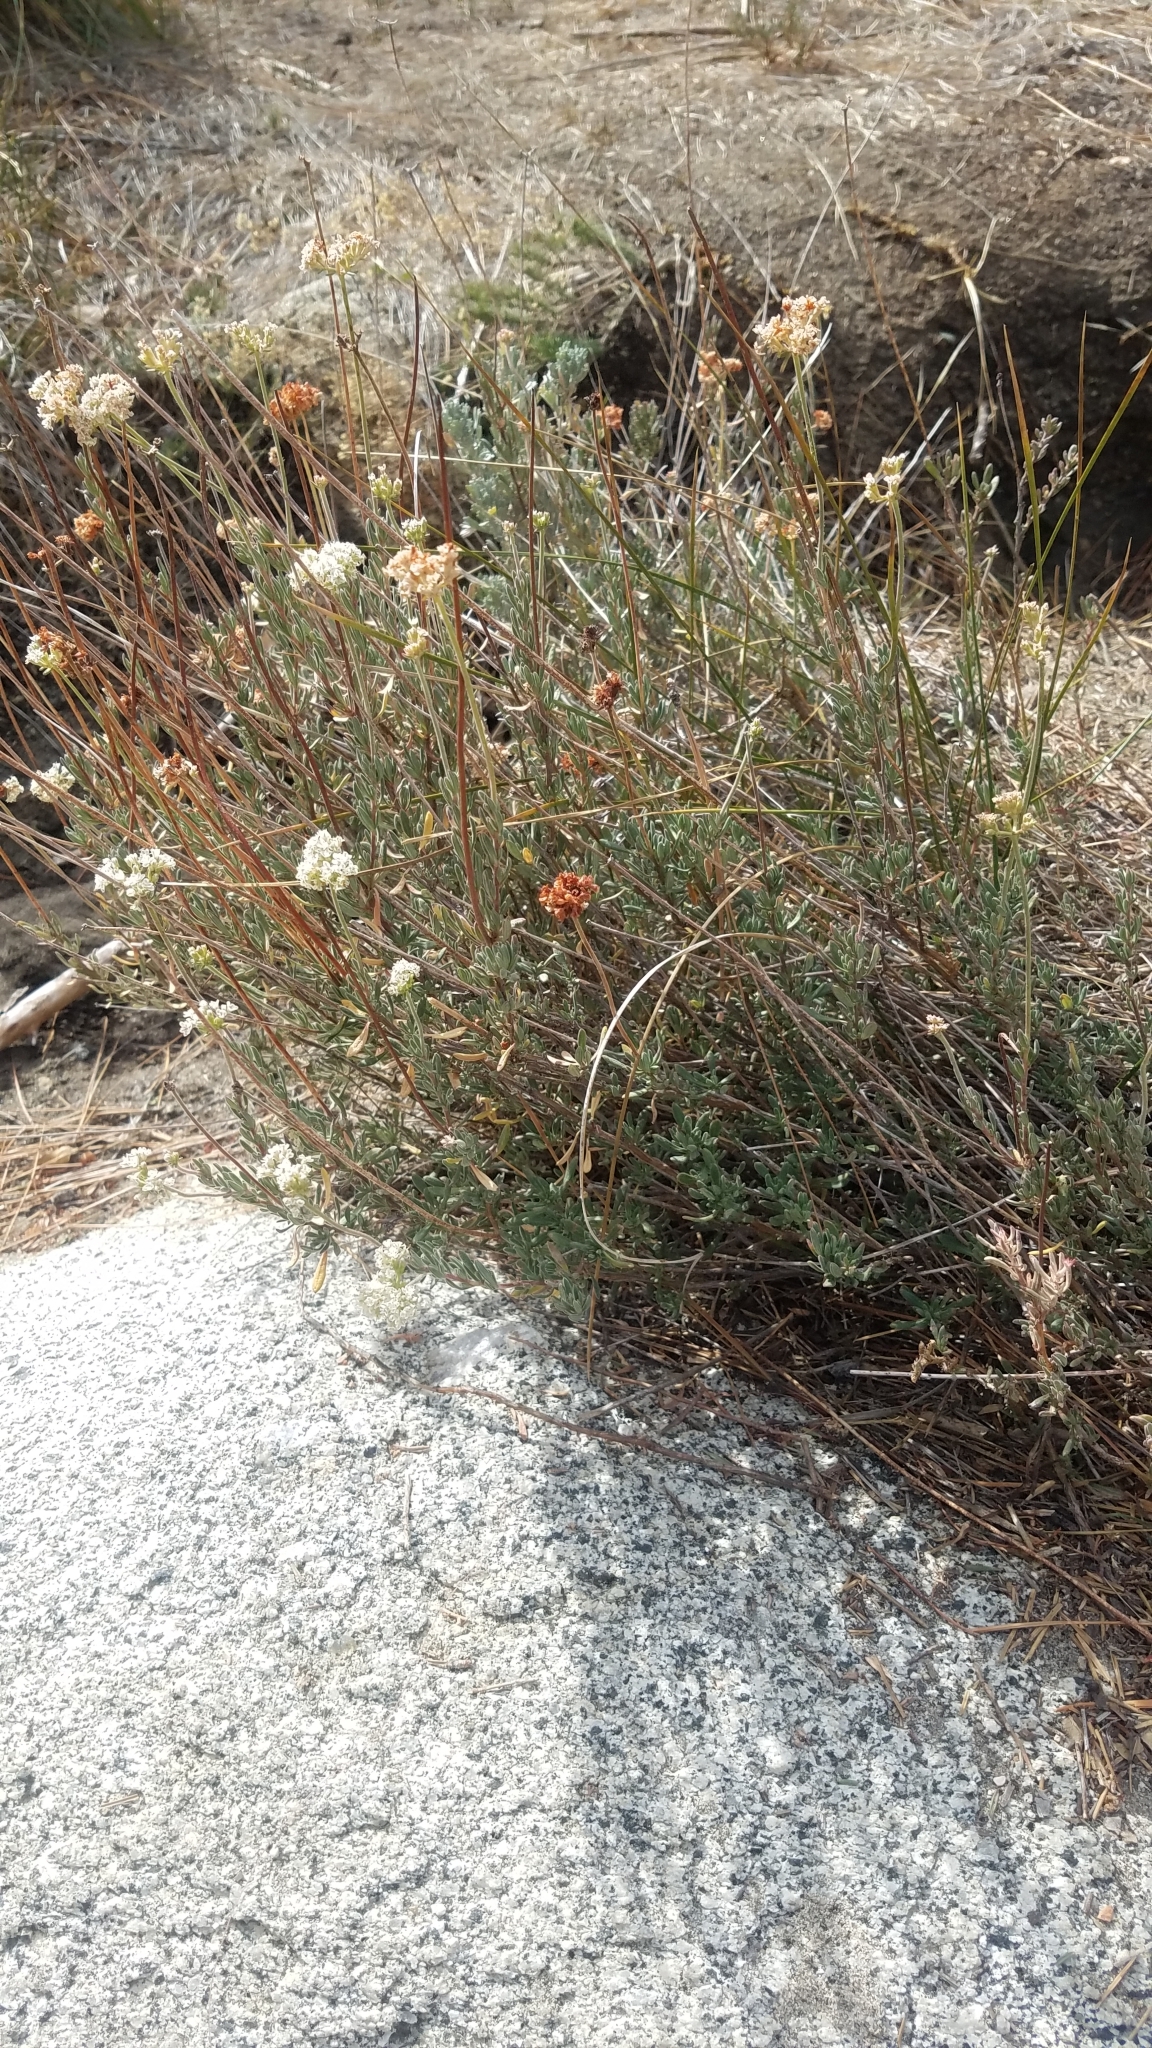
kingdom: Plantae
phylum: Tracheophyta
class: Magnoliopsida
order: Caryophyllales
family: Polygonaceae
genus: Eriogonum
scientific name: Eriogonum fasciculatum
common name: California wild buckwheat
